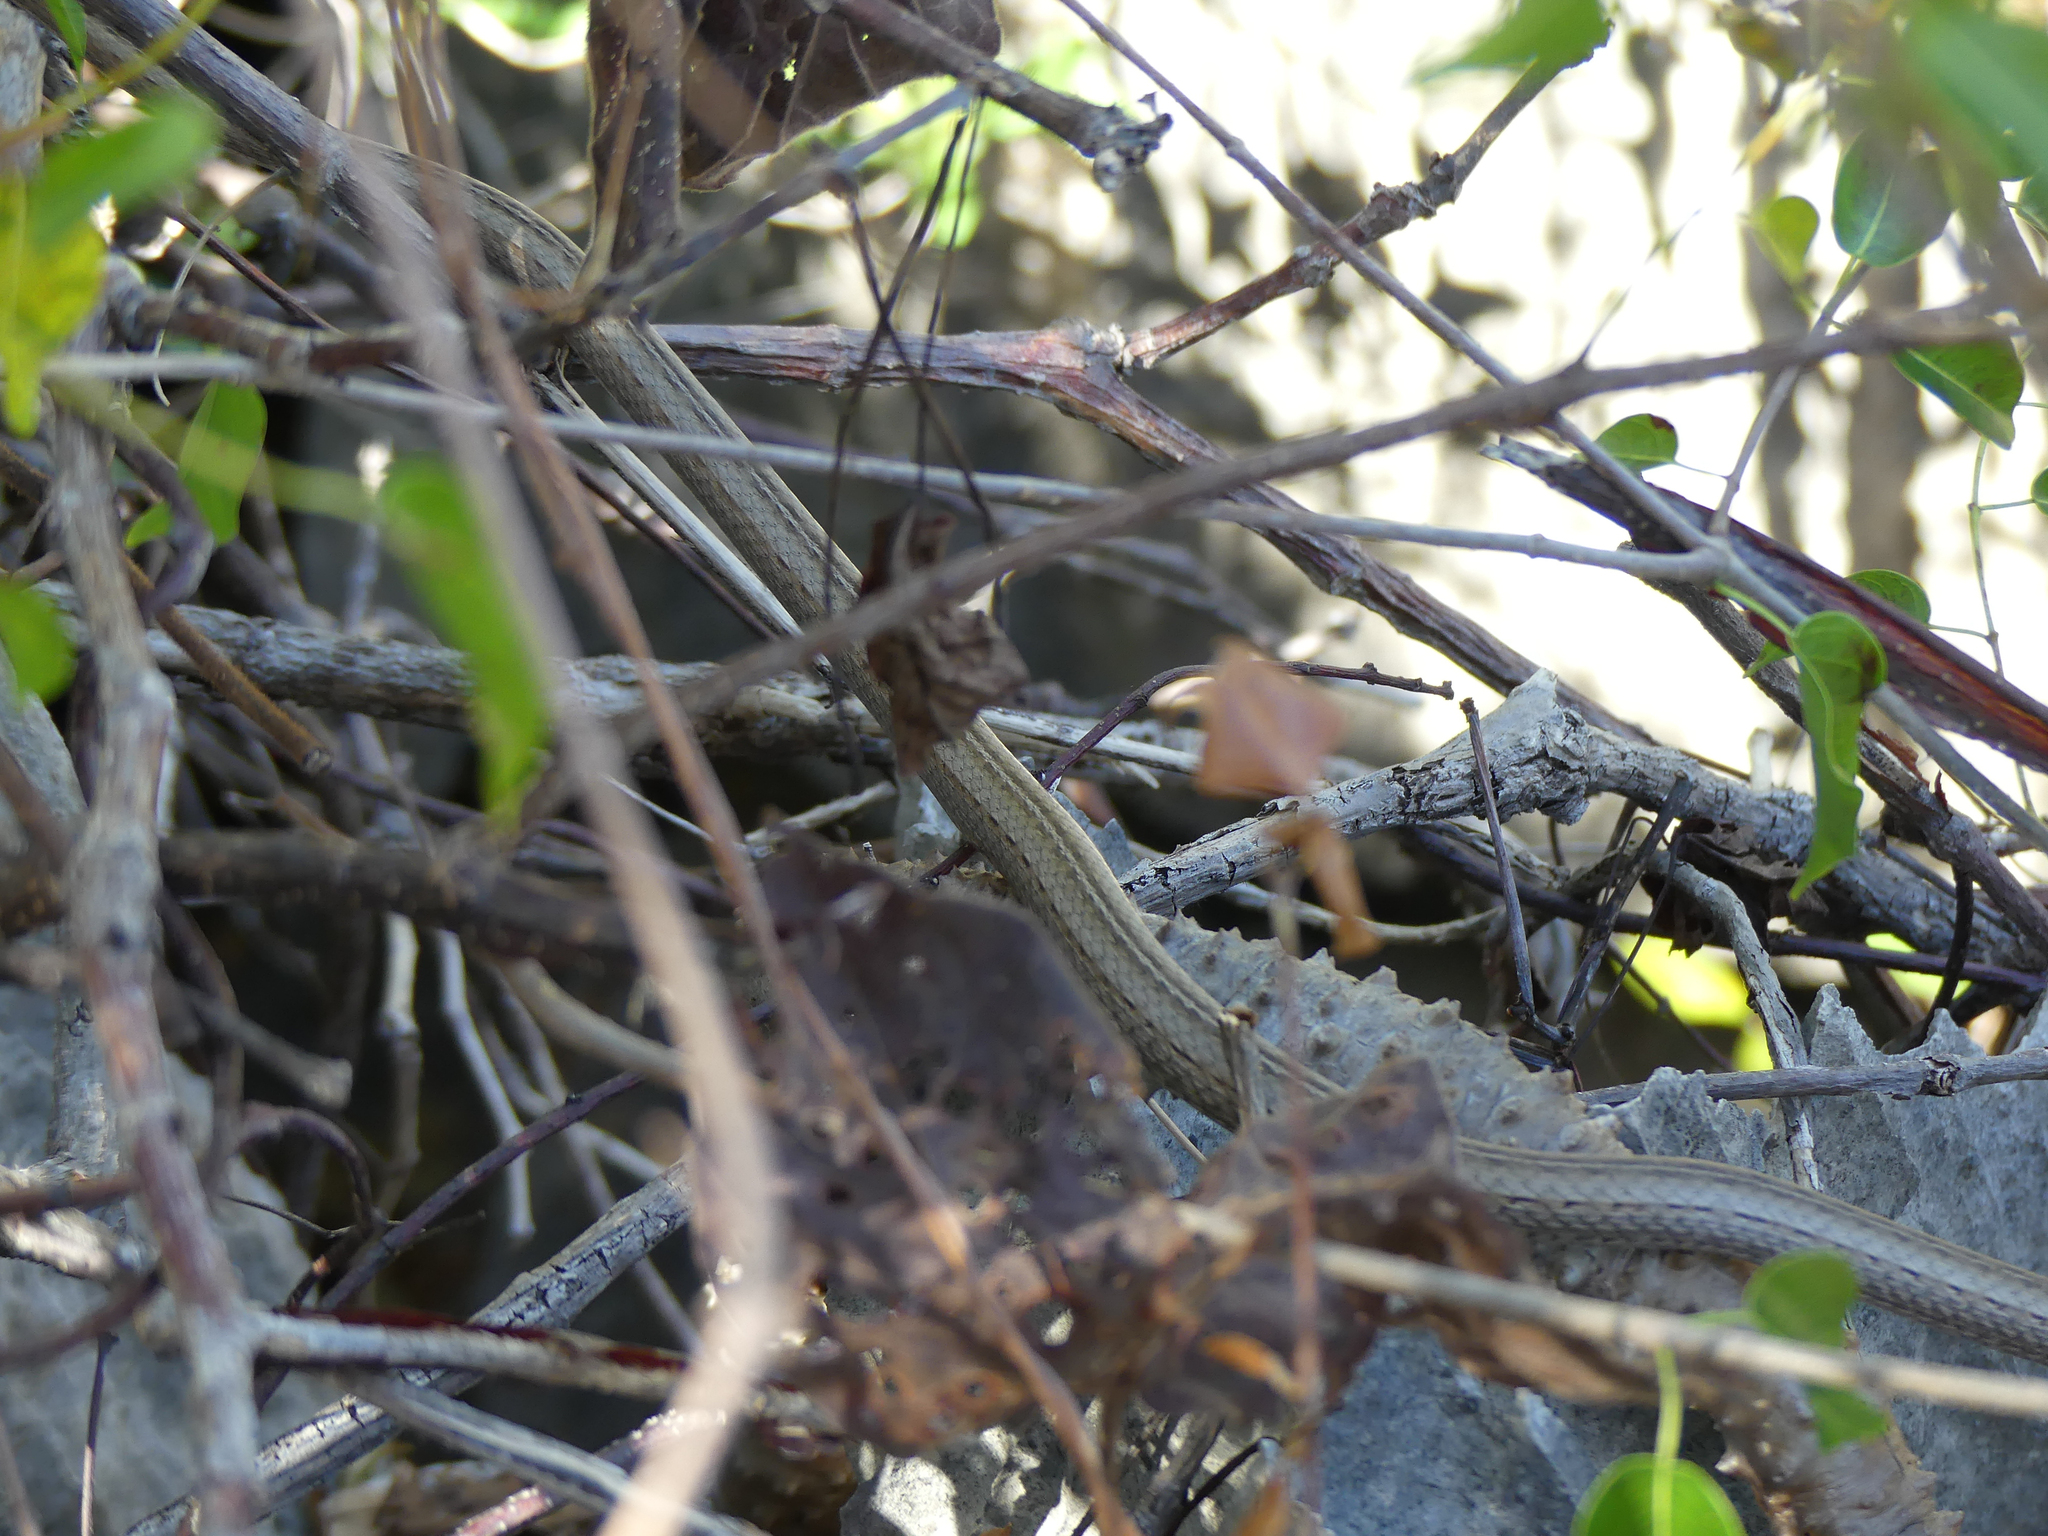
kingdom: Animalia
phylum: Chordata
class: Squamata
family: Psammophiidae
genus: Mimophis
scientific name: Mimophis occultus
